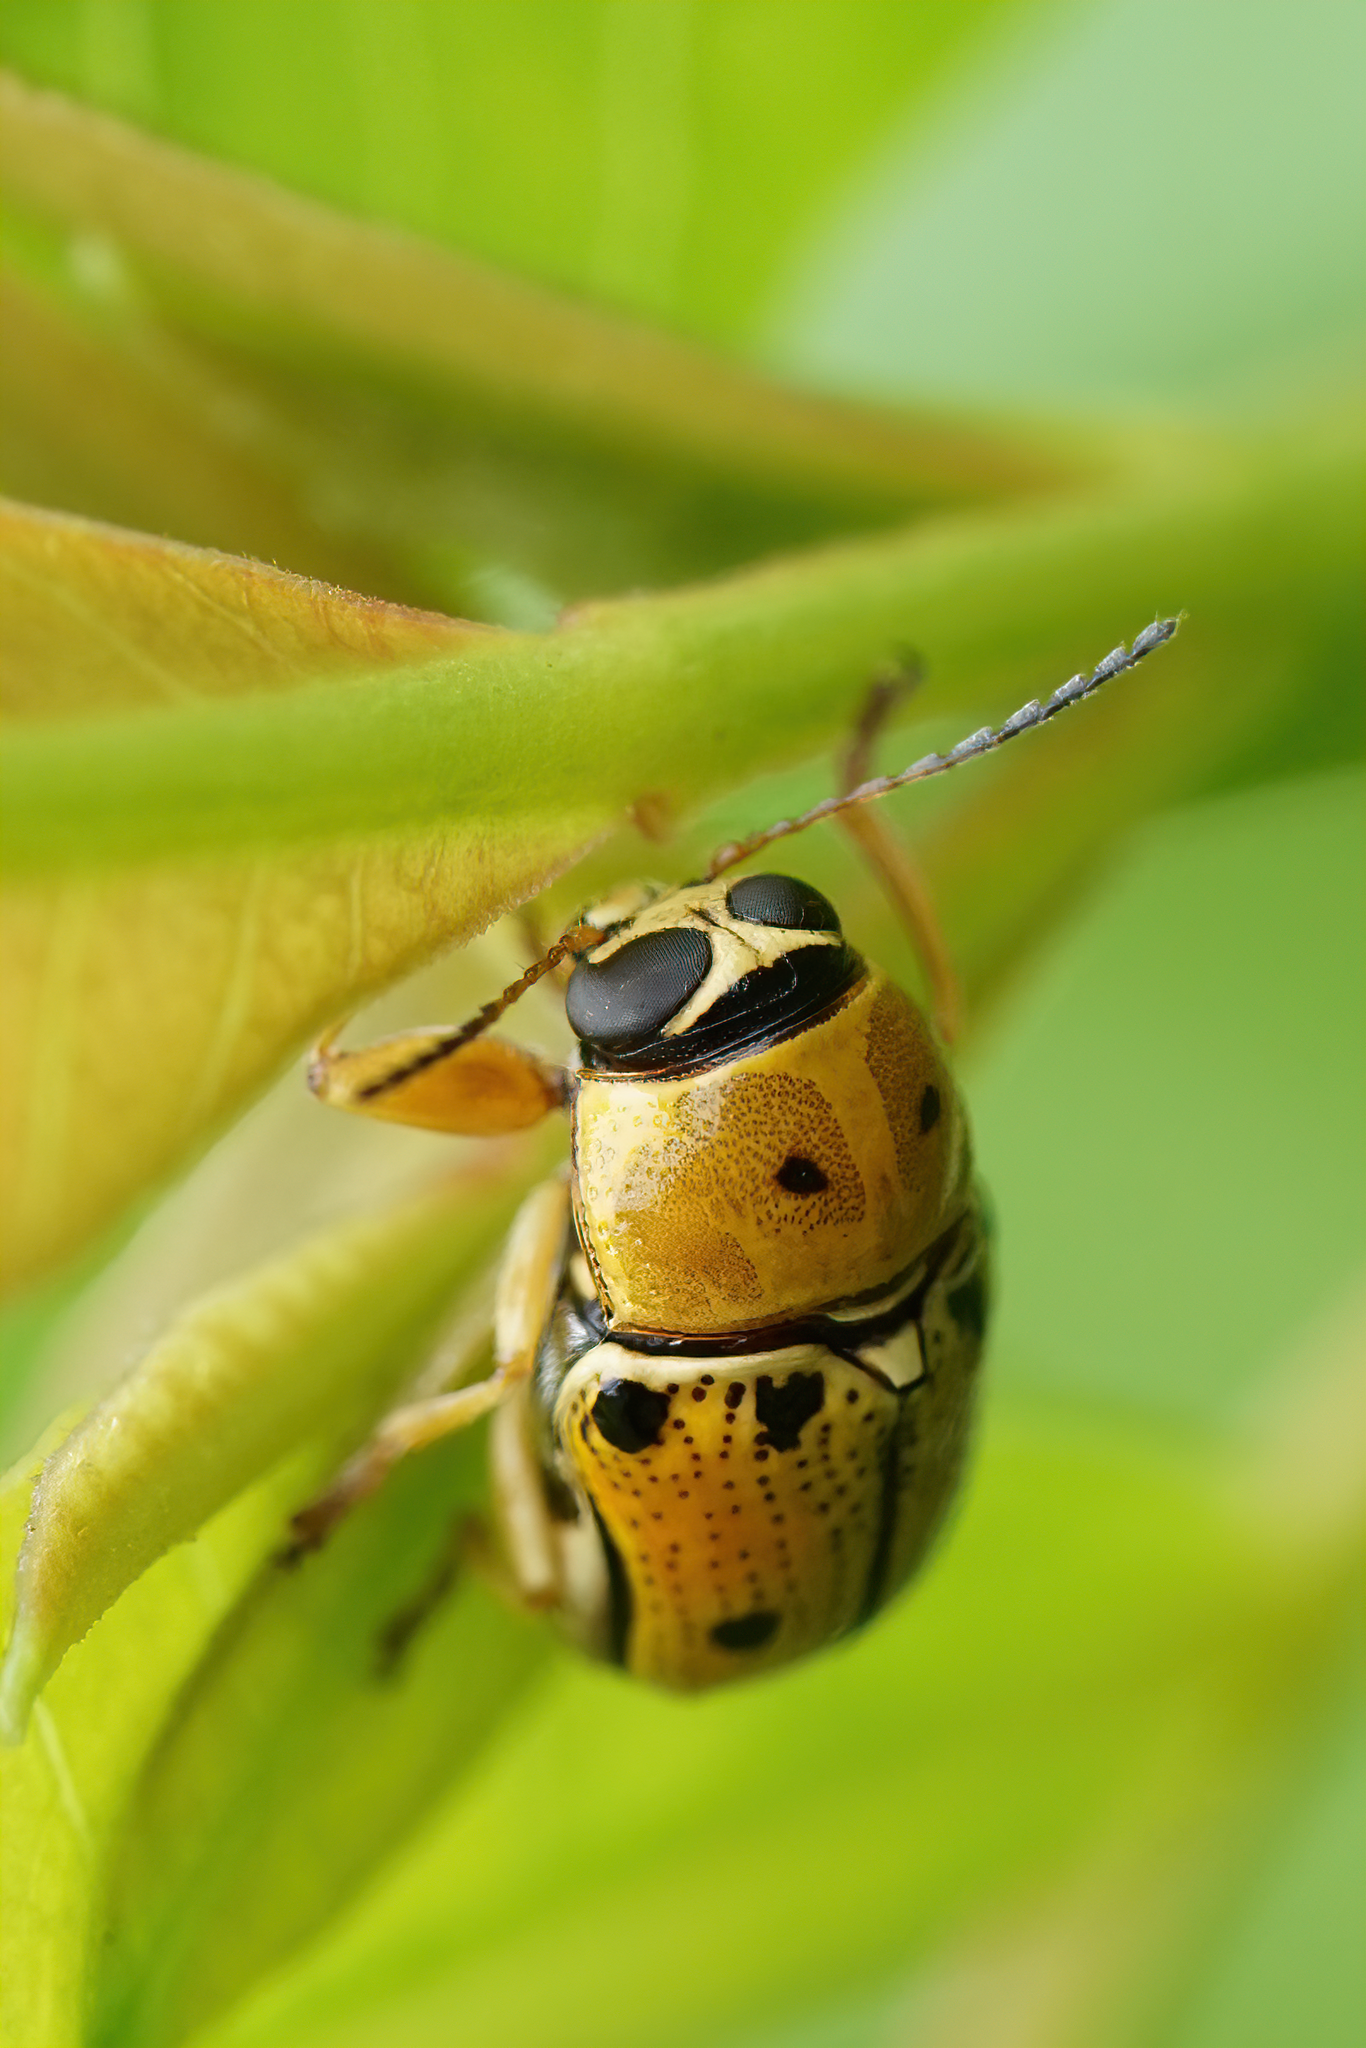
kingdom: Animalia
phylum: Arthropoda
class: Insecta
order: Coleoptera
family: Chrysomelidae
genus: Griburius
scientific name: Griburius larvatus
